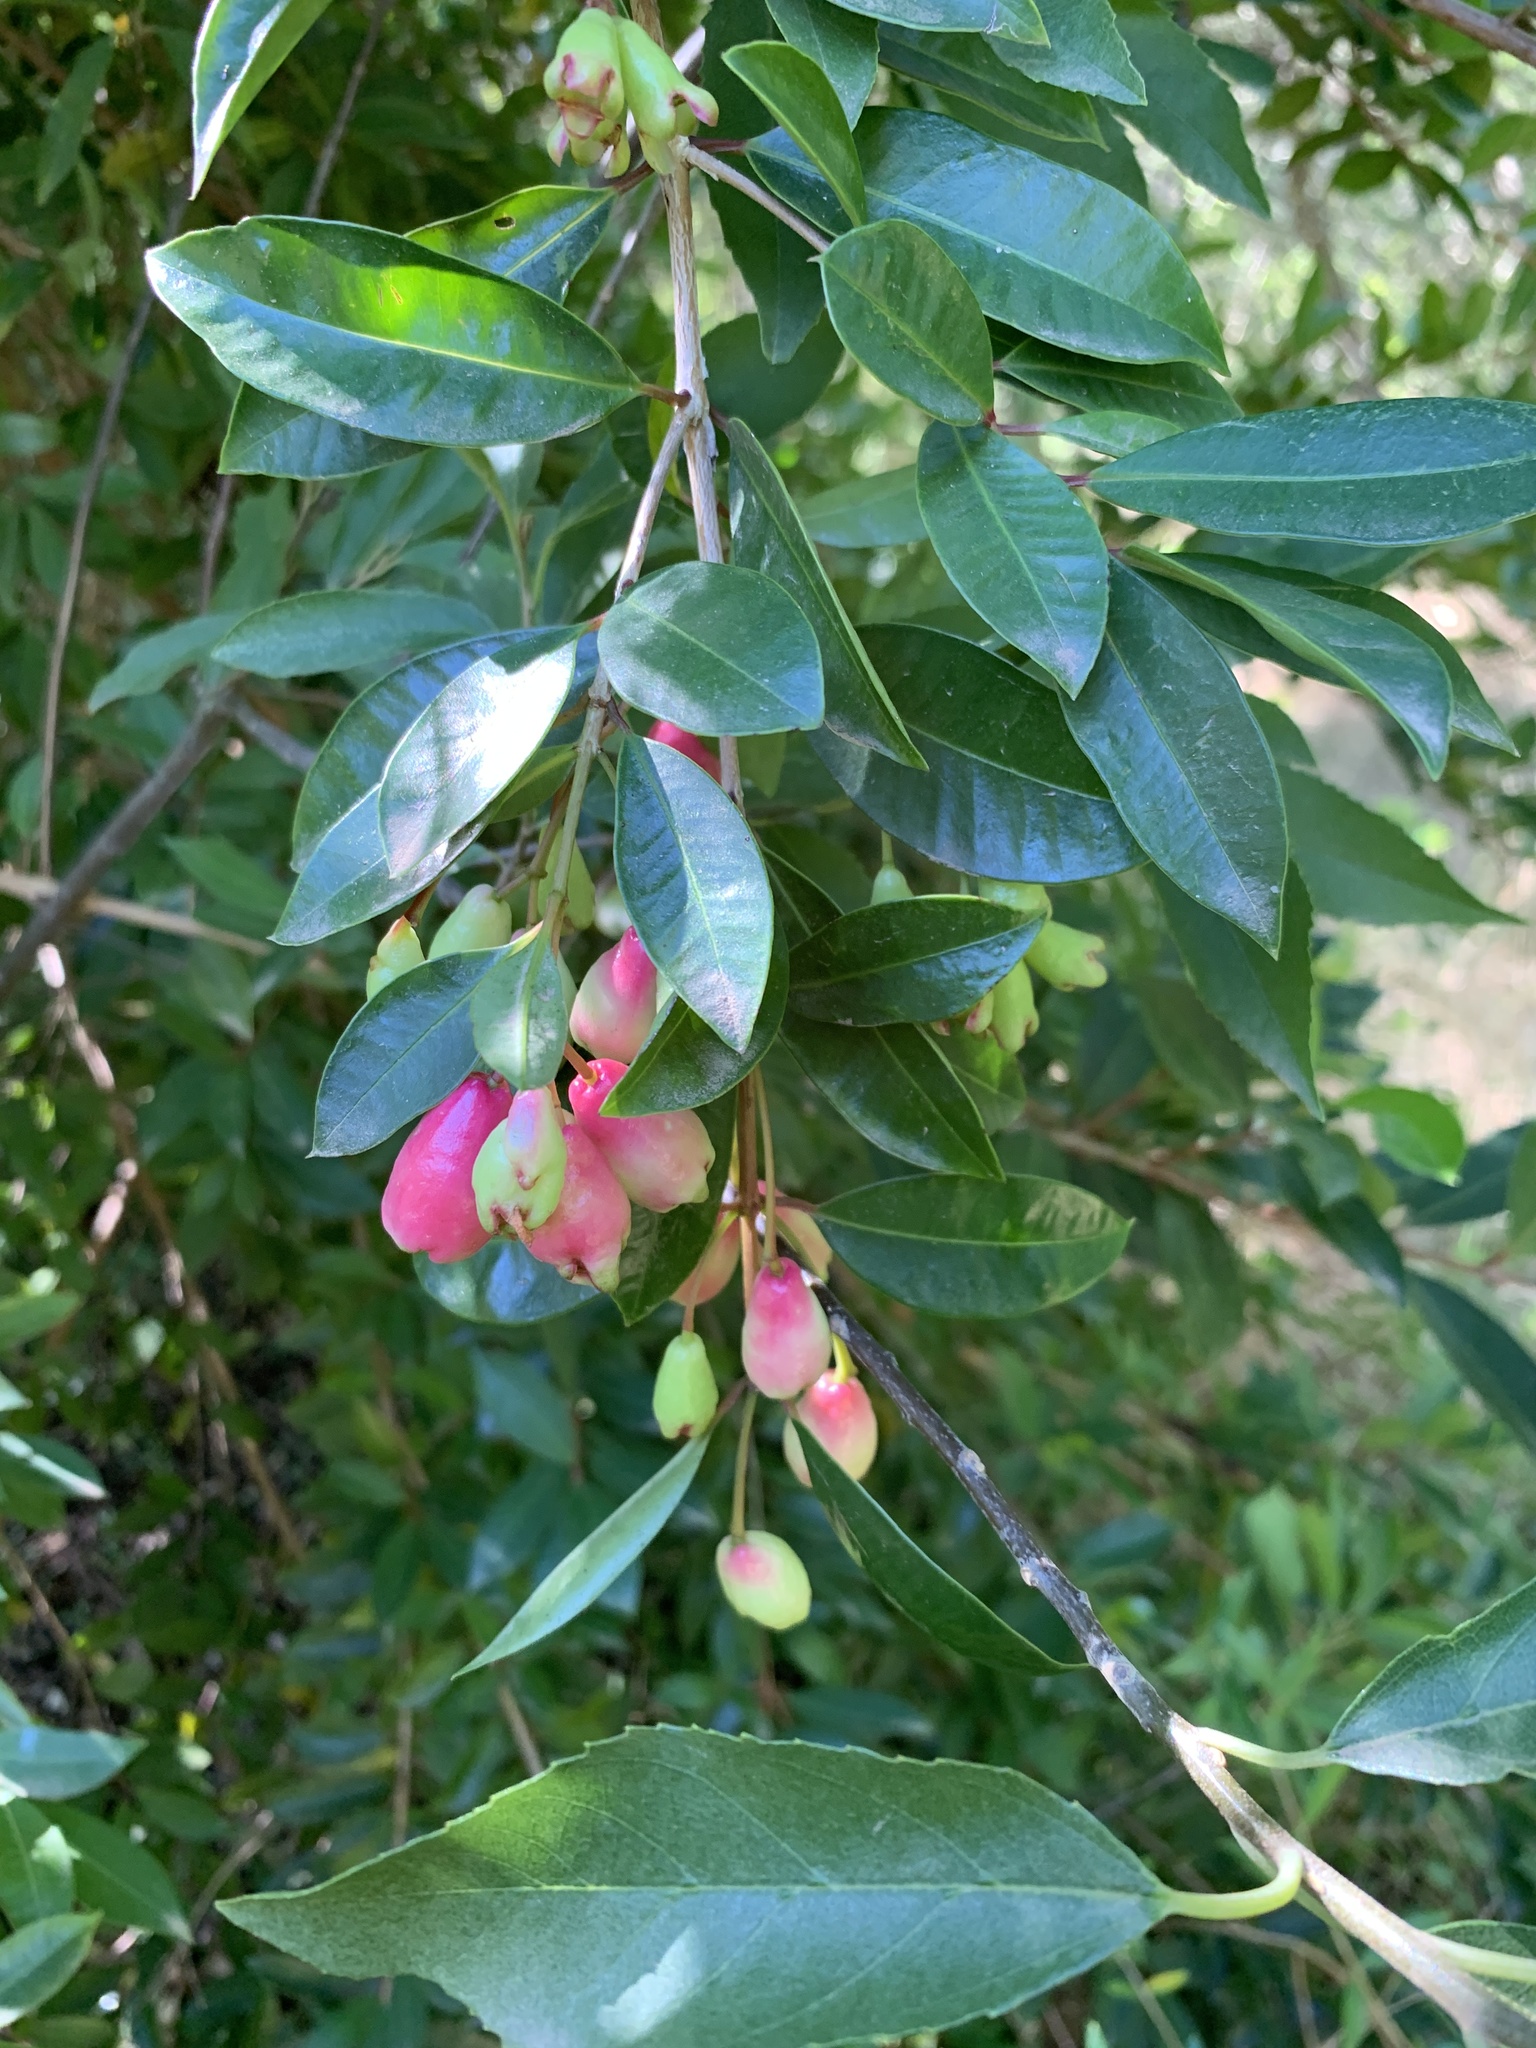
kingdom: Plantae
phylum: Tracheophyta
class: Magnoliopsida
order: Myrtales
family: Myrtaceae
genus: Syzygium
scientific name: Syzygium australe
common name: Australian brush-cherry
